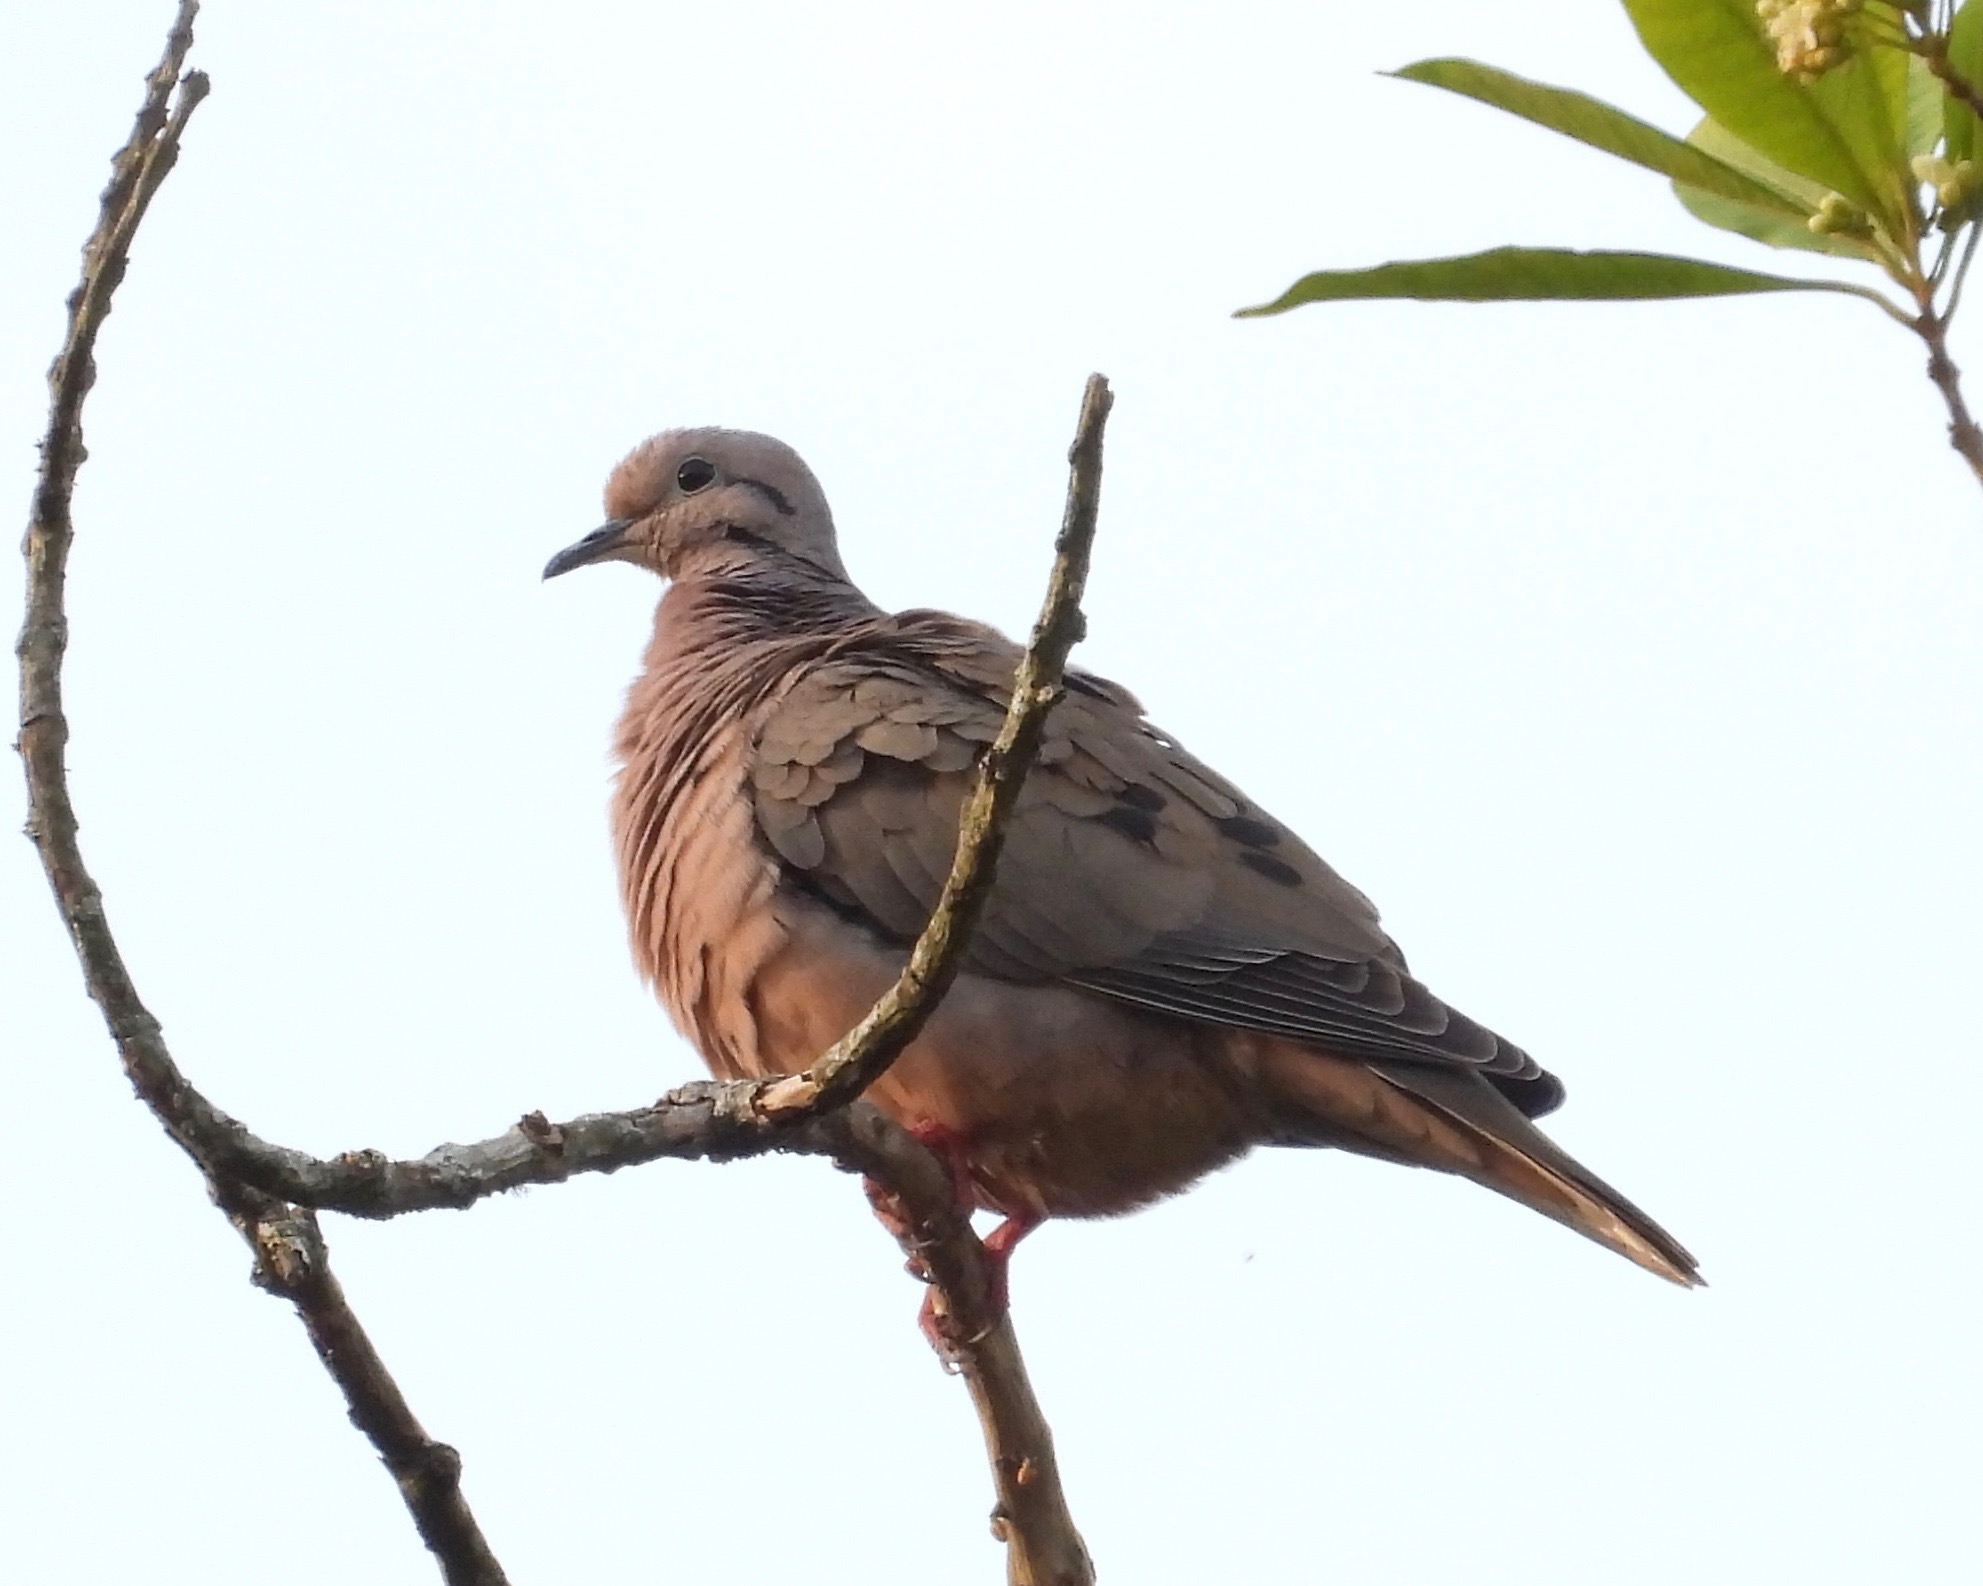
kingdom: Animalia
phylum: Chordata
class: Aves
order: Columbiformes
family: Columbidae
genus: Zenaida
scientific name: Zenaida auriculata
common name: Eared dove
